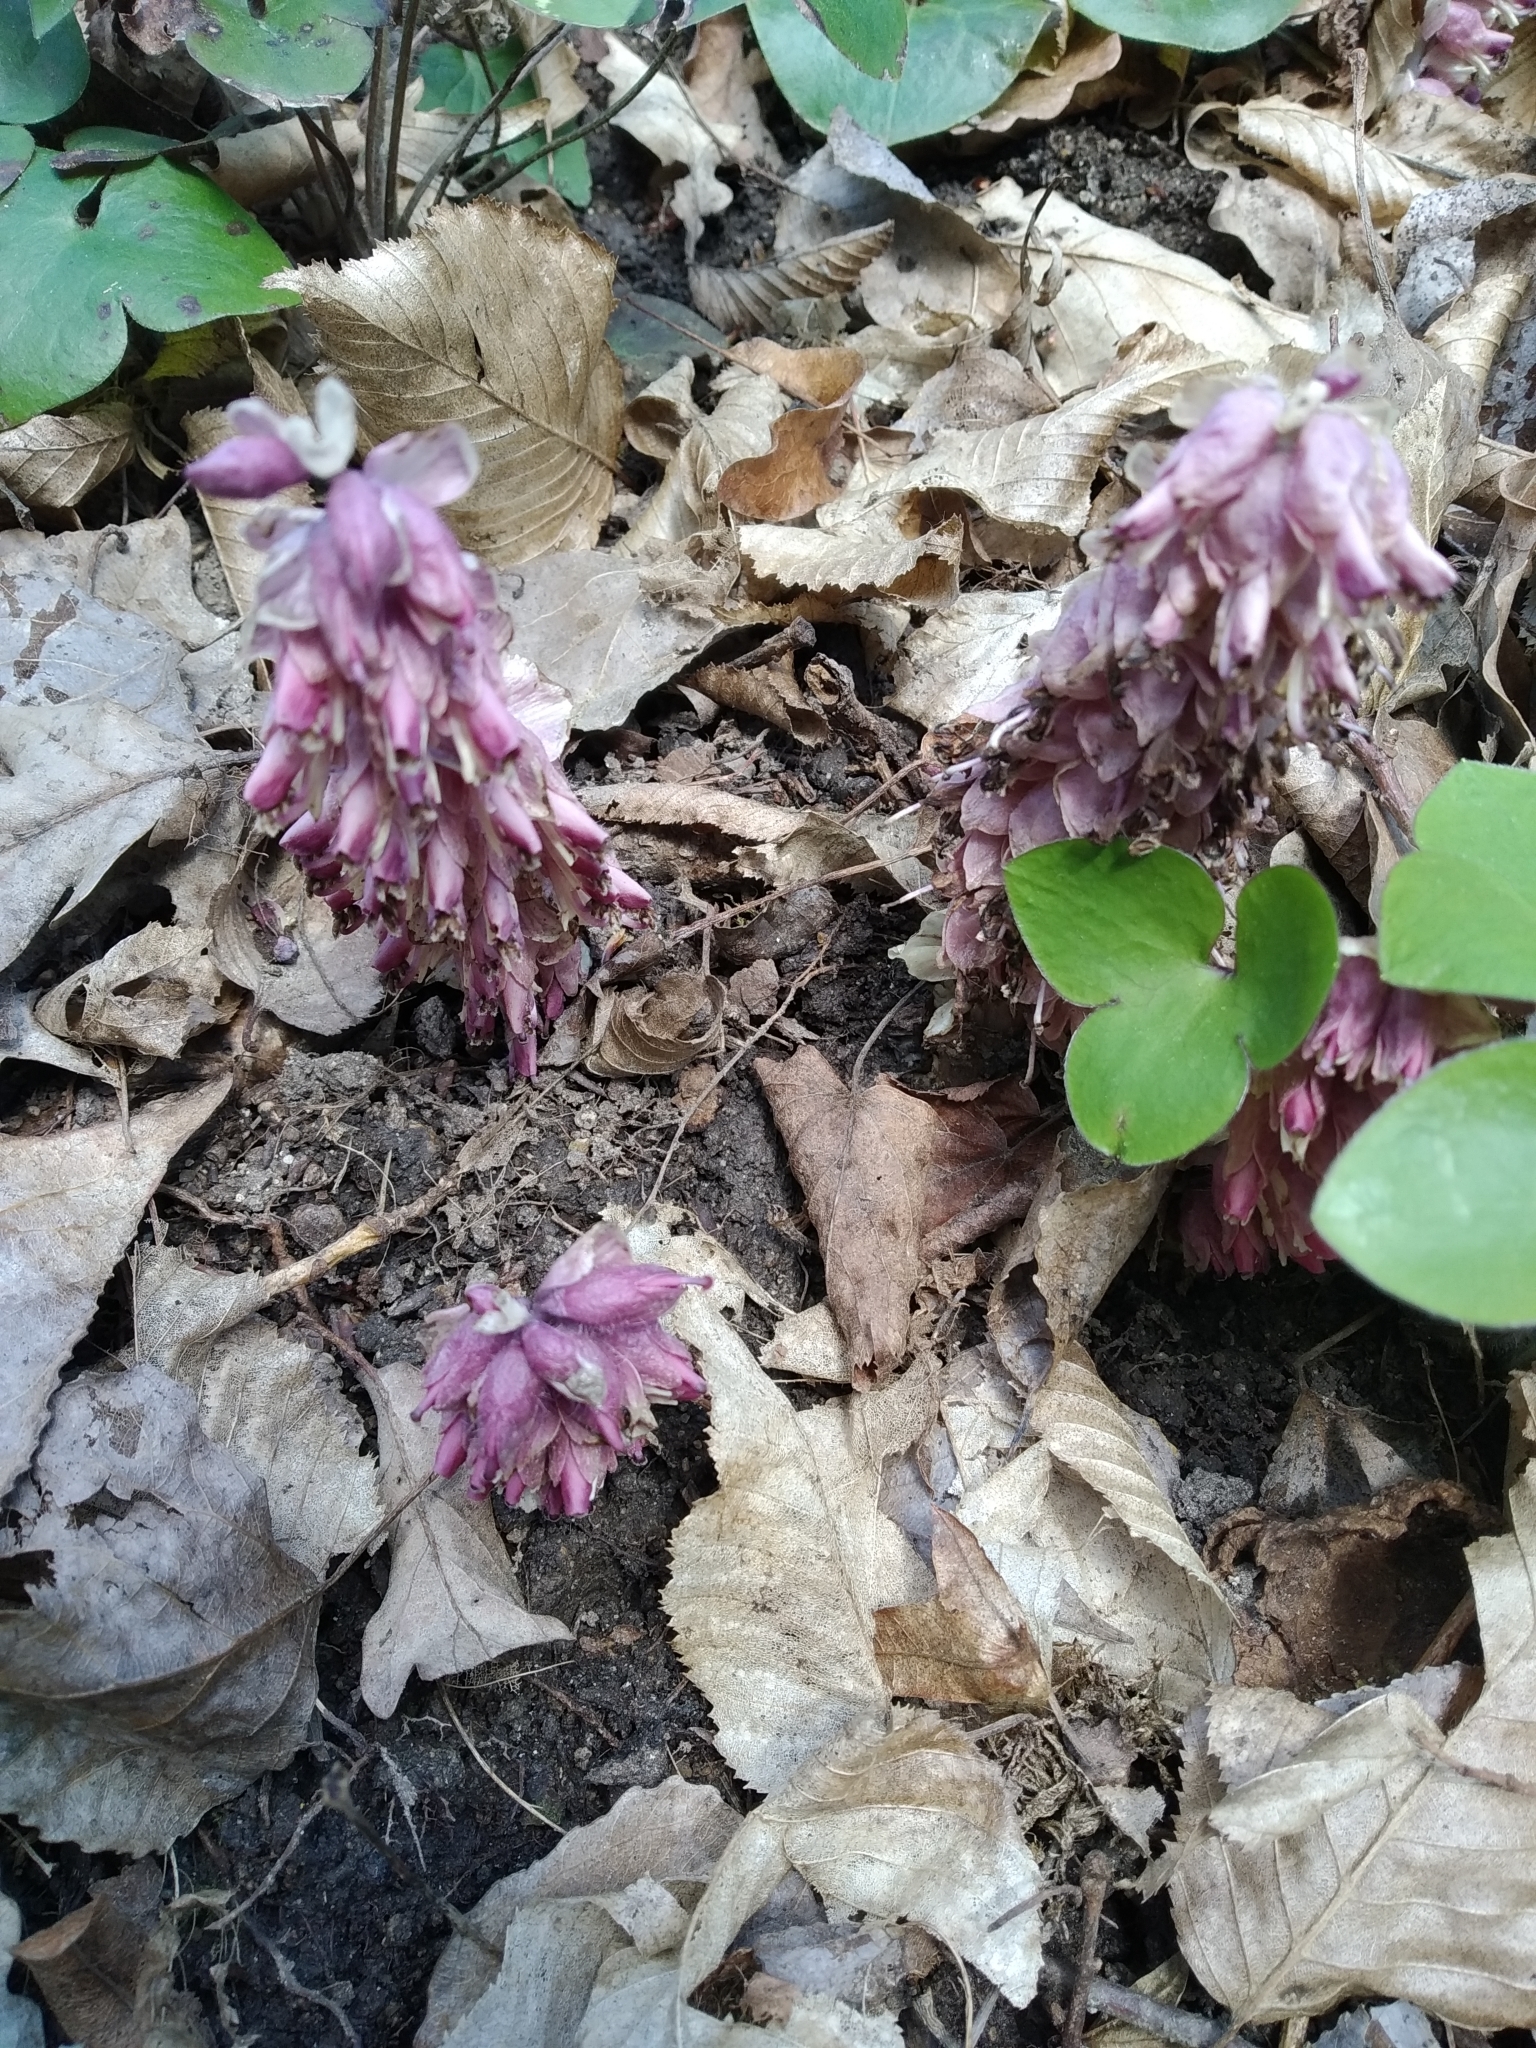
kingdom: Plantae
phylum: Tracheophyta
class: Magnoliopsida
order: Lamiales
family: Orobanchaceae
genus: Lathraea
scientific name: Lathraea squamaria
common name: Toothwort
